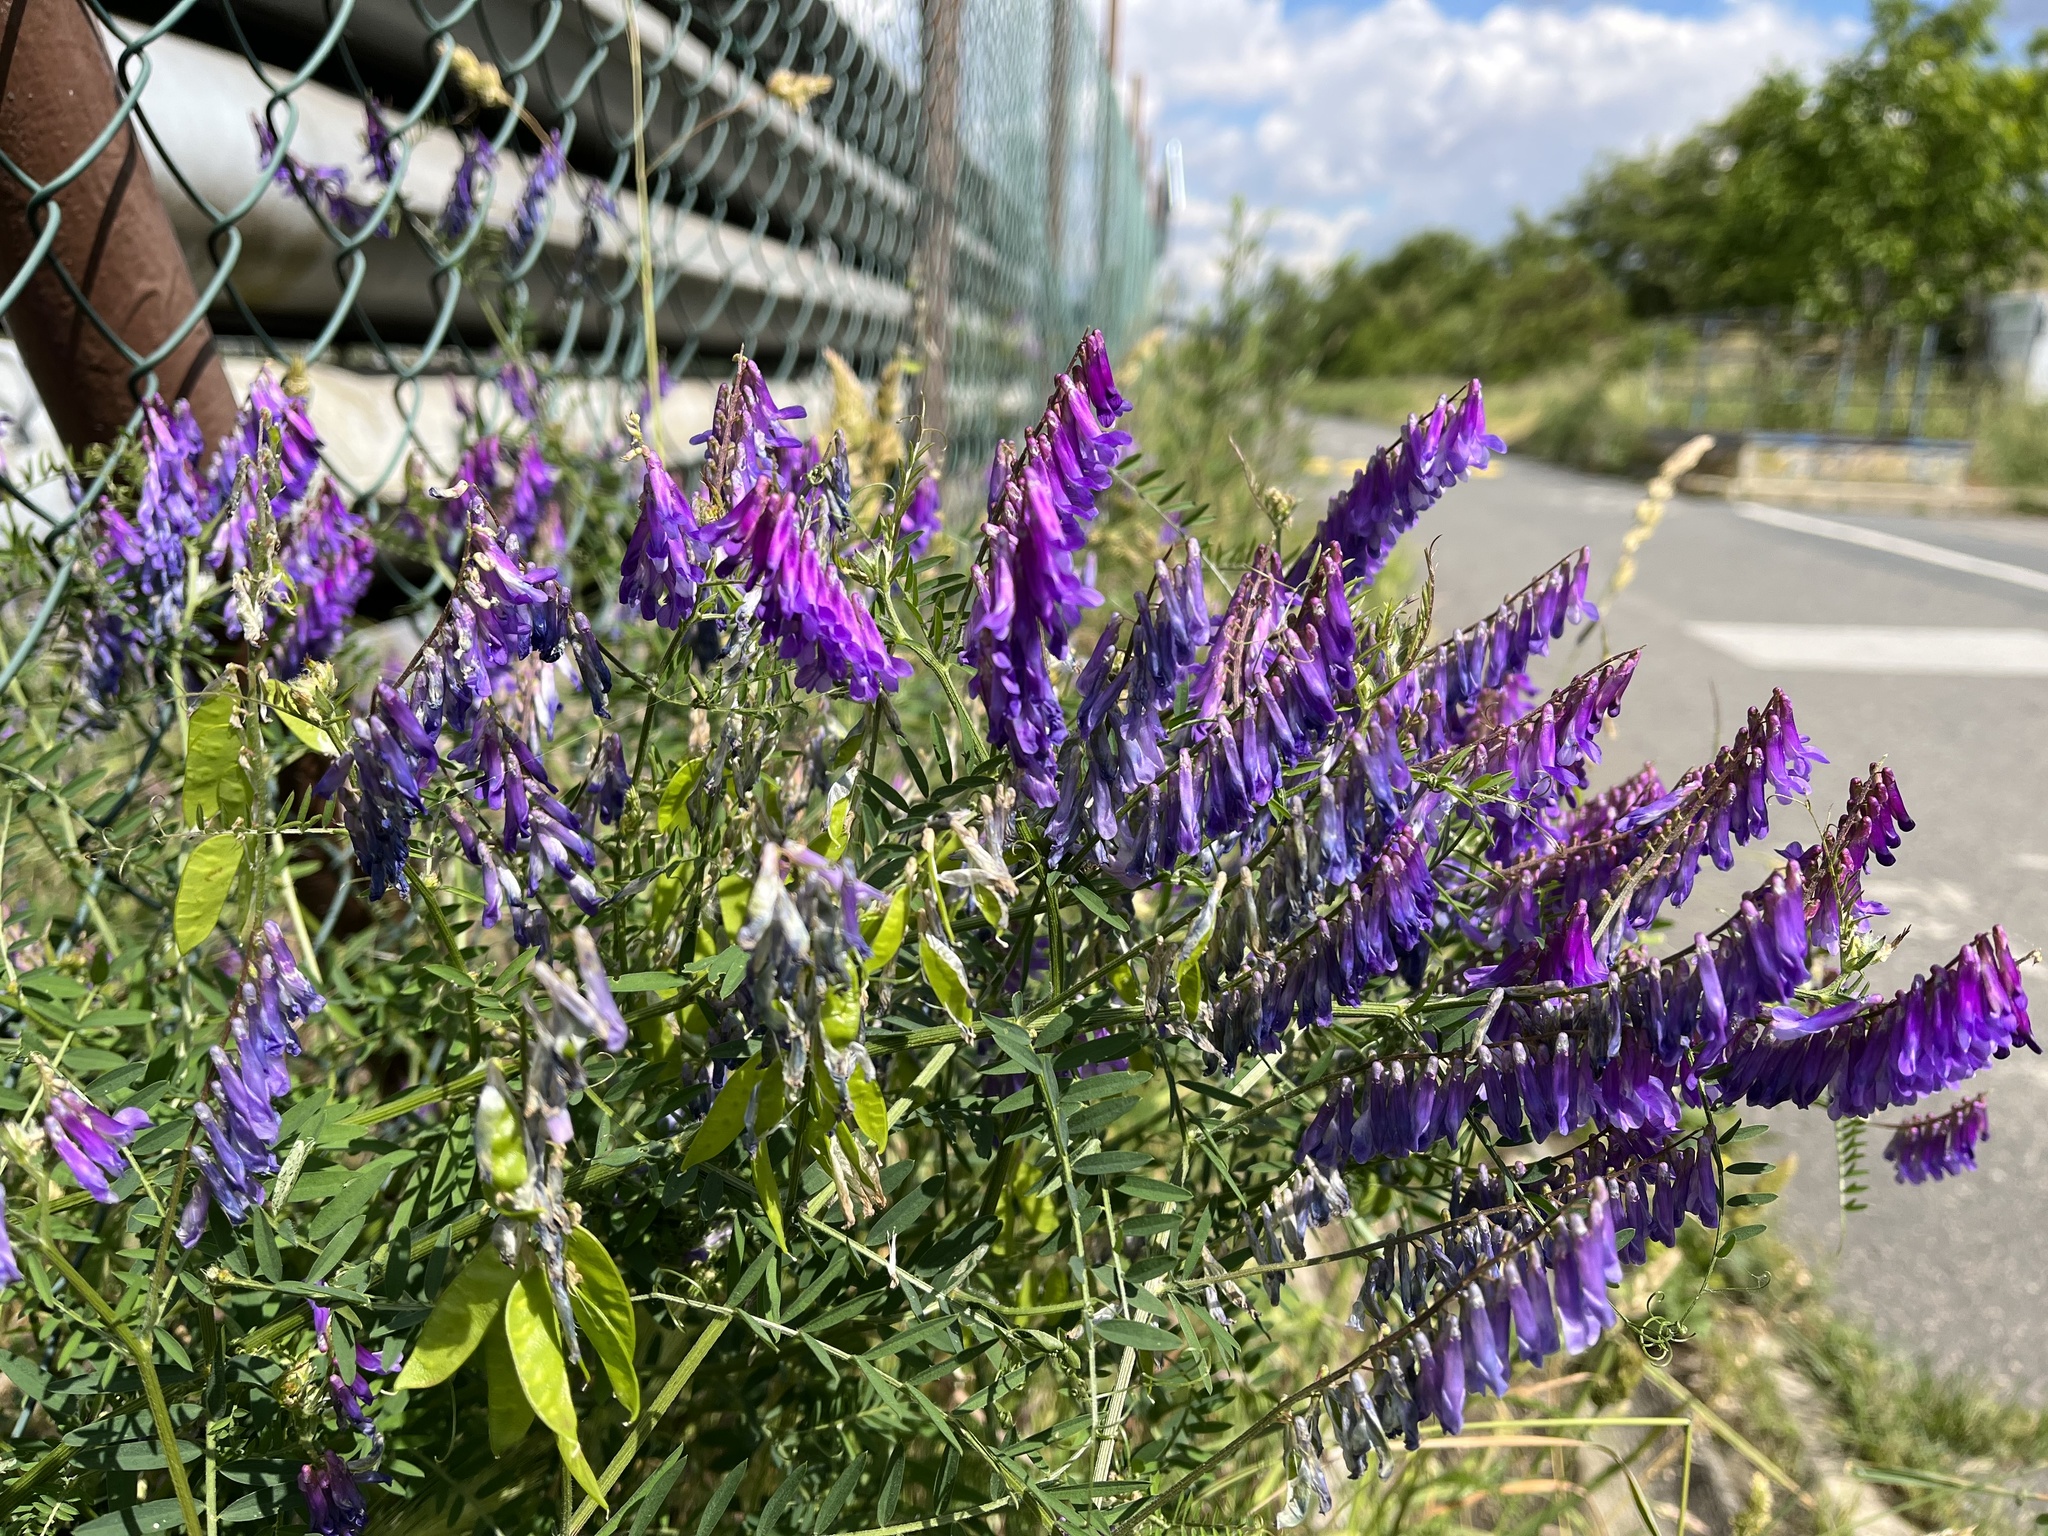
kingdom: Plantae
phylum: Tracheophyta
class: Magnoliopsida
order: Fabales
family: Fabaceae
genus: Vicia
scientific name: Vicia villosa
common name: Fodder vetch
